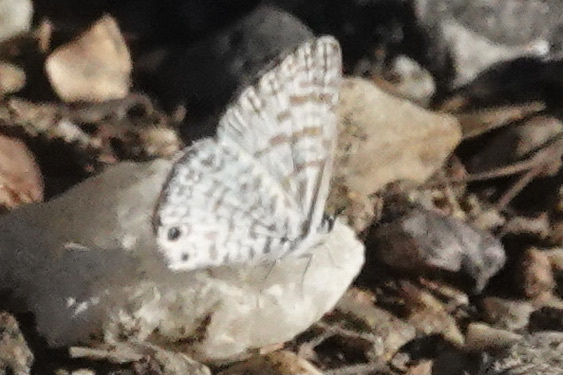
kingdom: Animalia
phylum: Arthropoda
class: Insecta
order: Lepidoptera
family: Lycaenidae
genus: Leptotes
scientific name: Leptotes theonus
